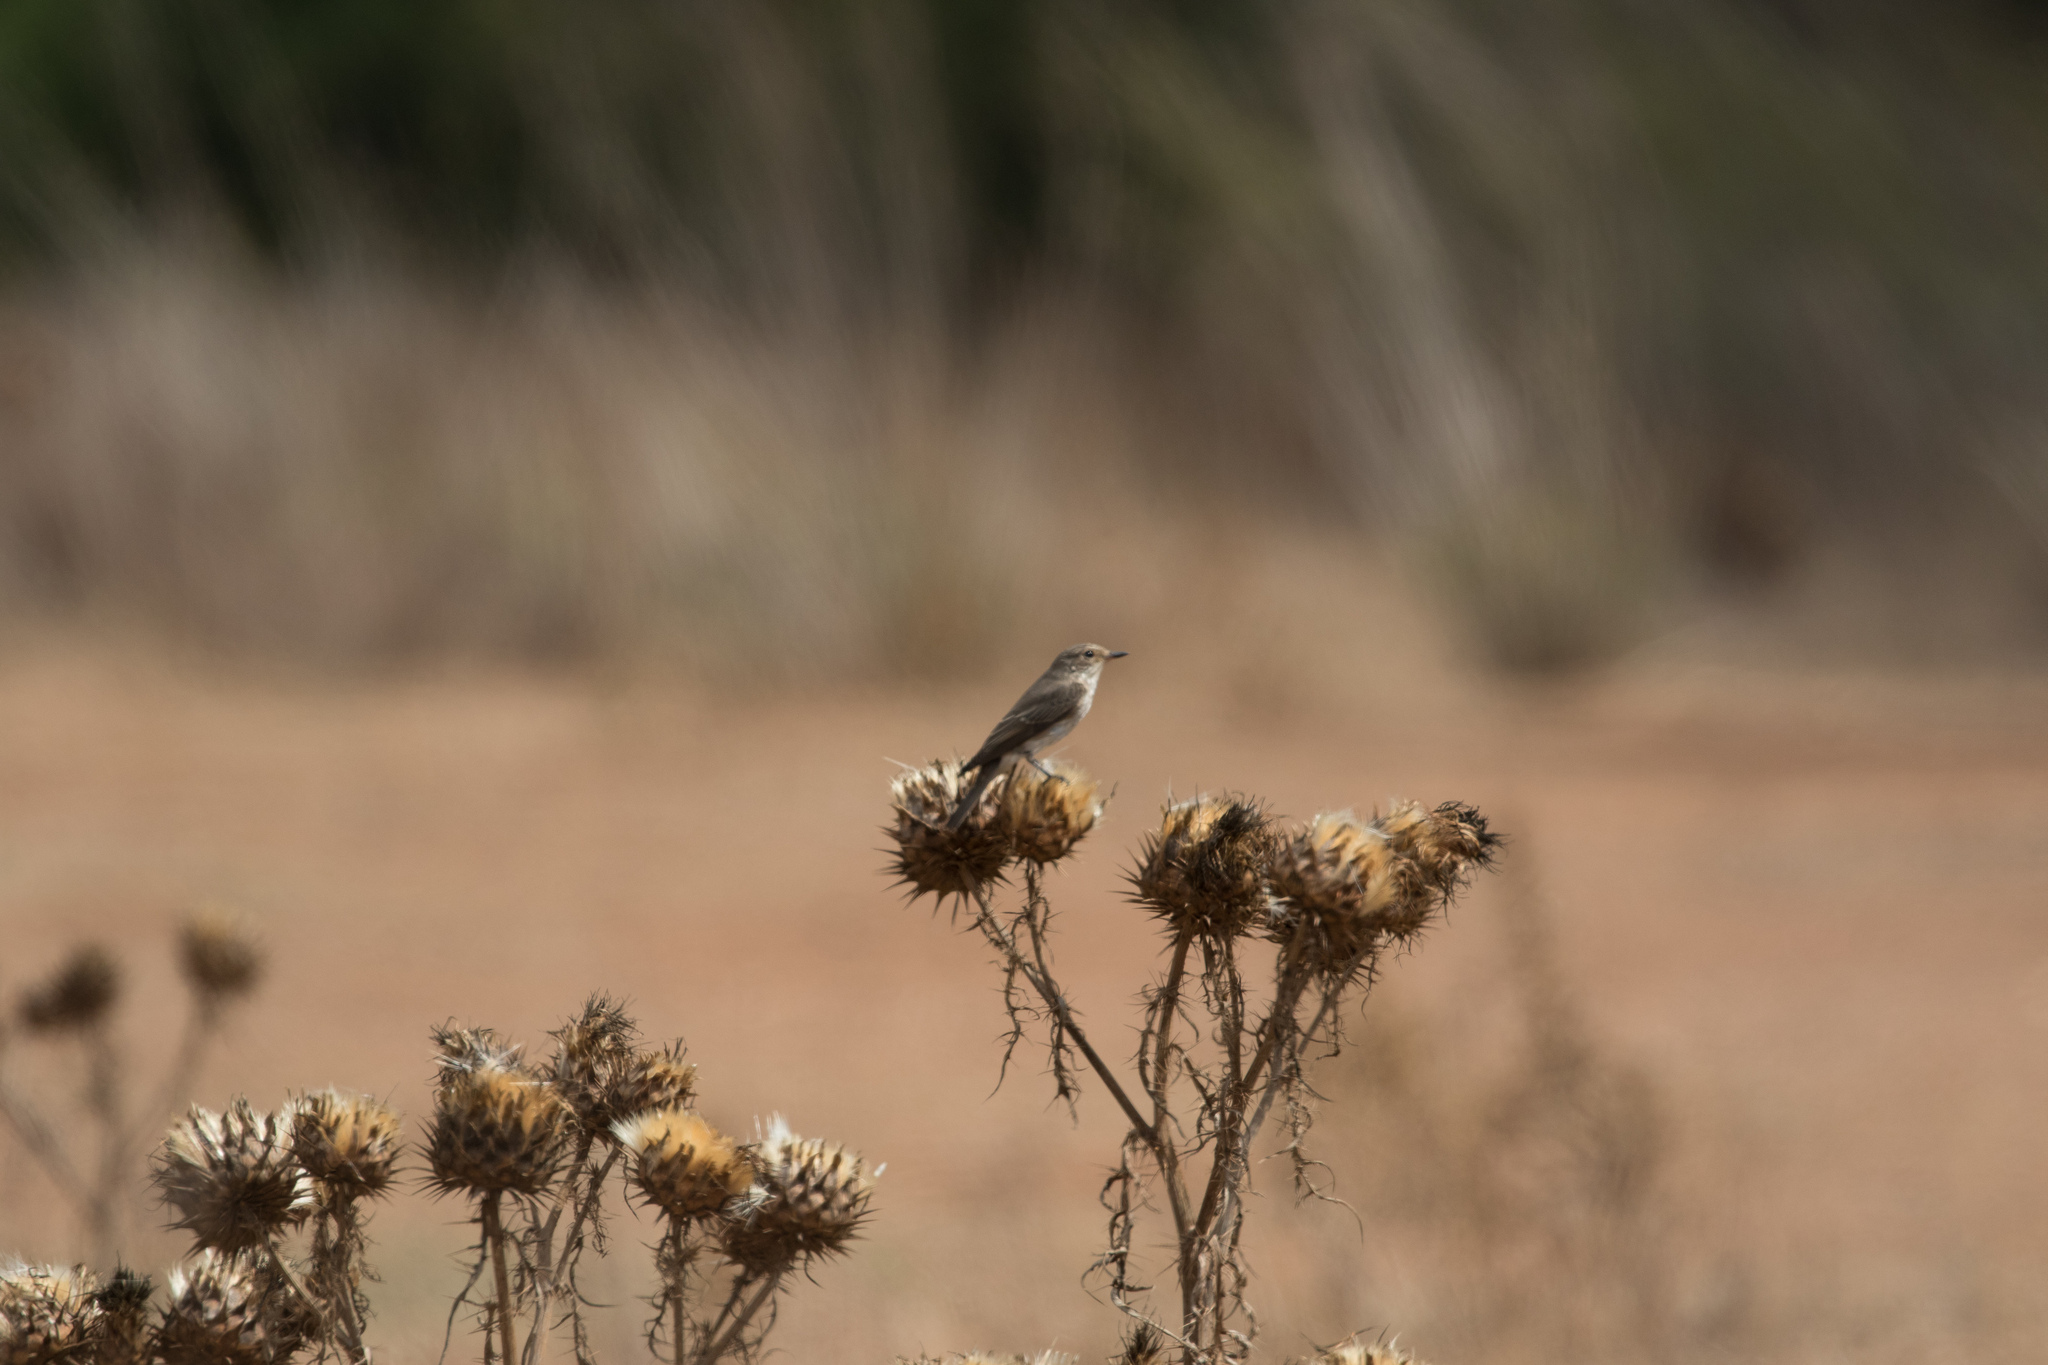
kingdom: Animalia
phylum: Chordata
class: Aves
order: Passeriformes
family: Muscicapidae
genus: Muscicapa
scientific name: Muscicapa striata
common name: Spotted flycatcher
